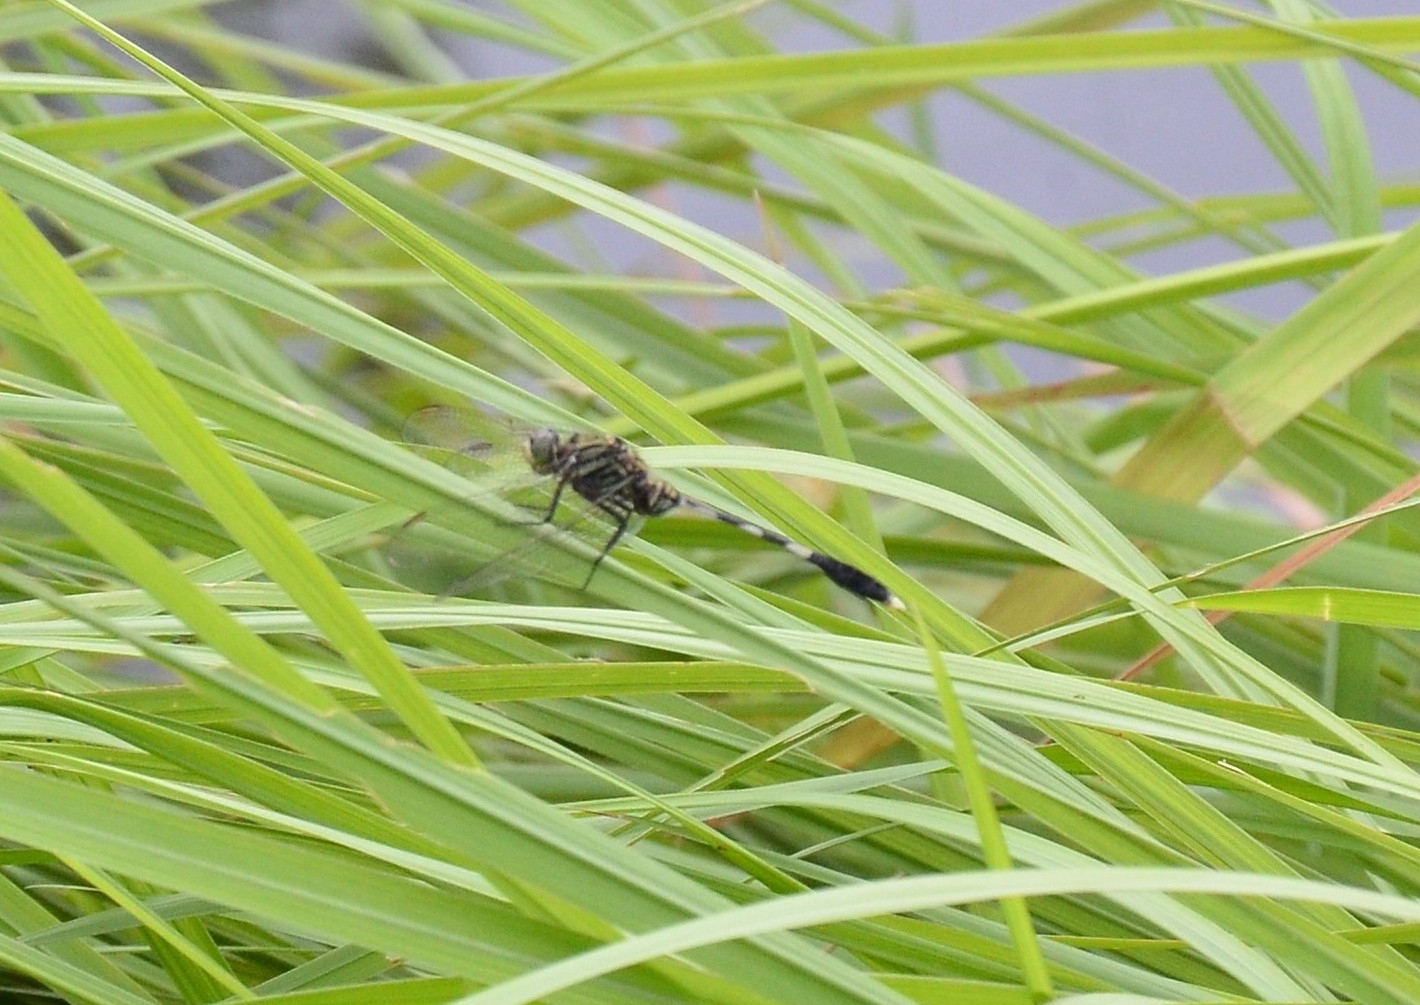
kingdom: Animalia
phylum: Arthropoda
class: Insecta
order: Odonata
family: Libellulidae
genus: Orthetrum
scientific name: Orthetrum sabina
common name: Slender skimmer
